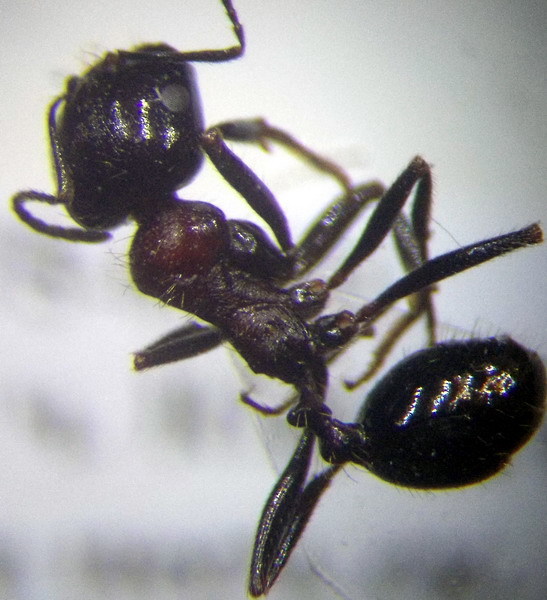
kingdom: Animalia
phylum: Arthropoda
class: Insecta
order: Hymenoptera
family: Formicidae
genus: Messor
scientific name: Messor denticulatus
